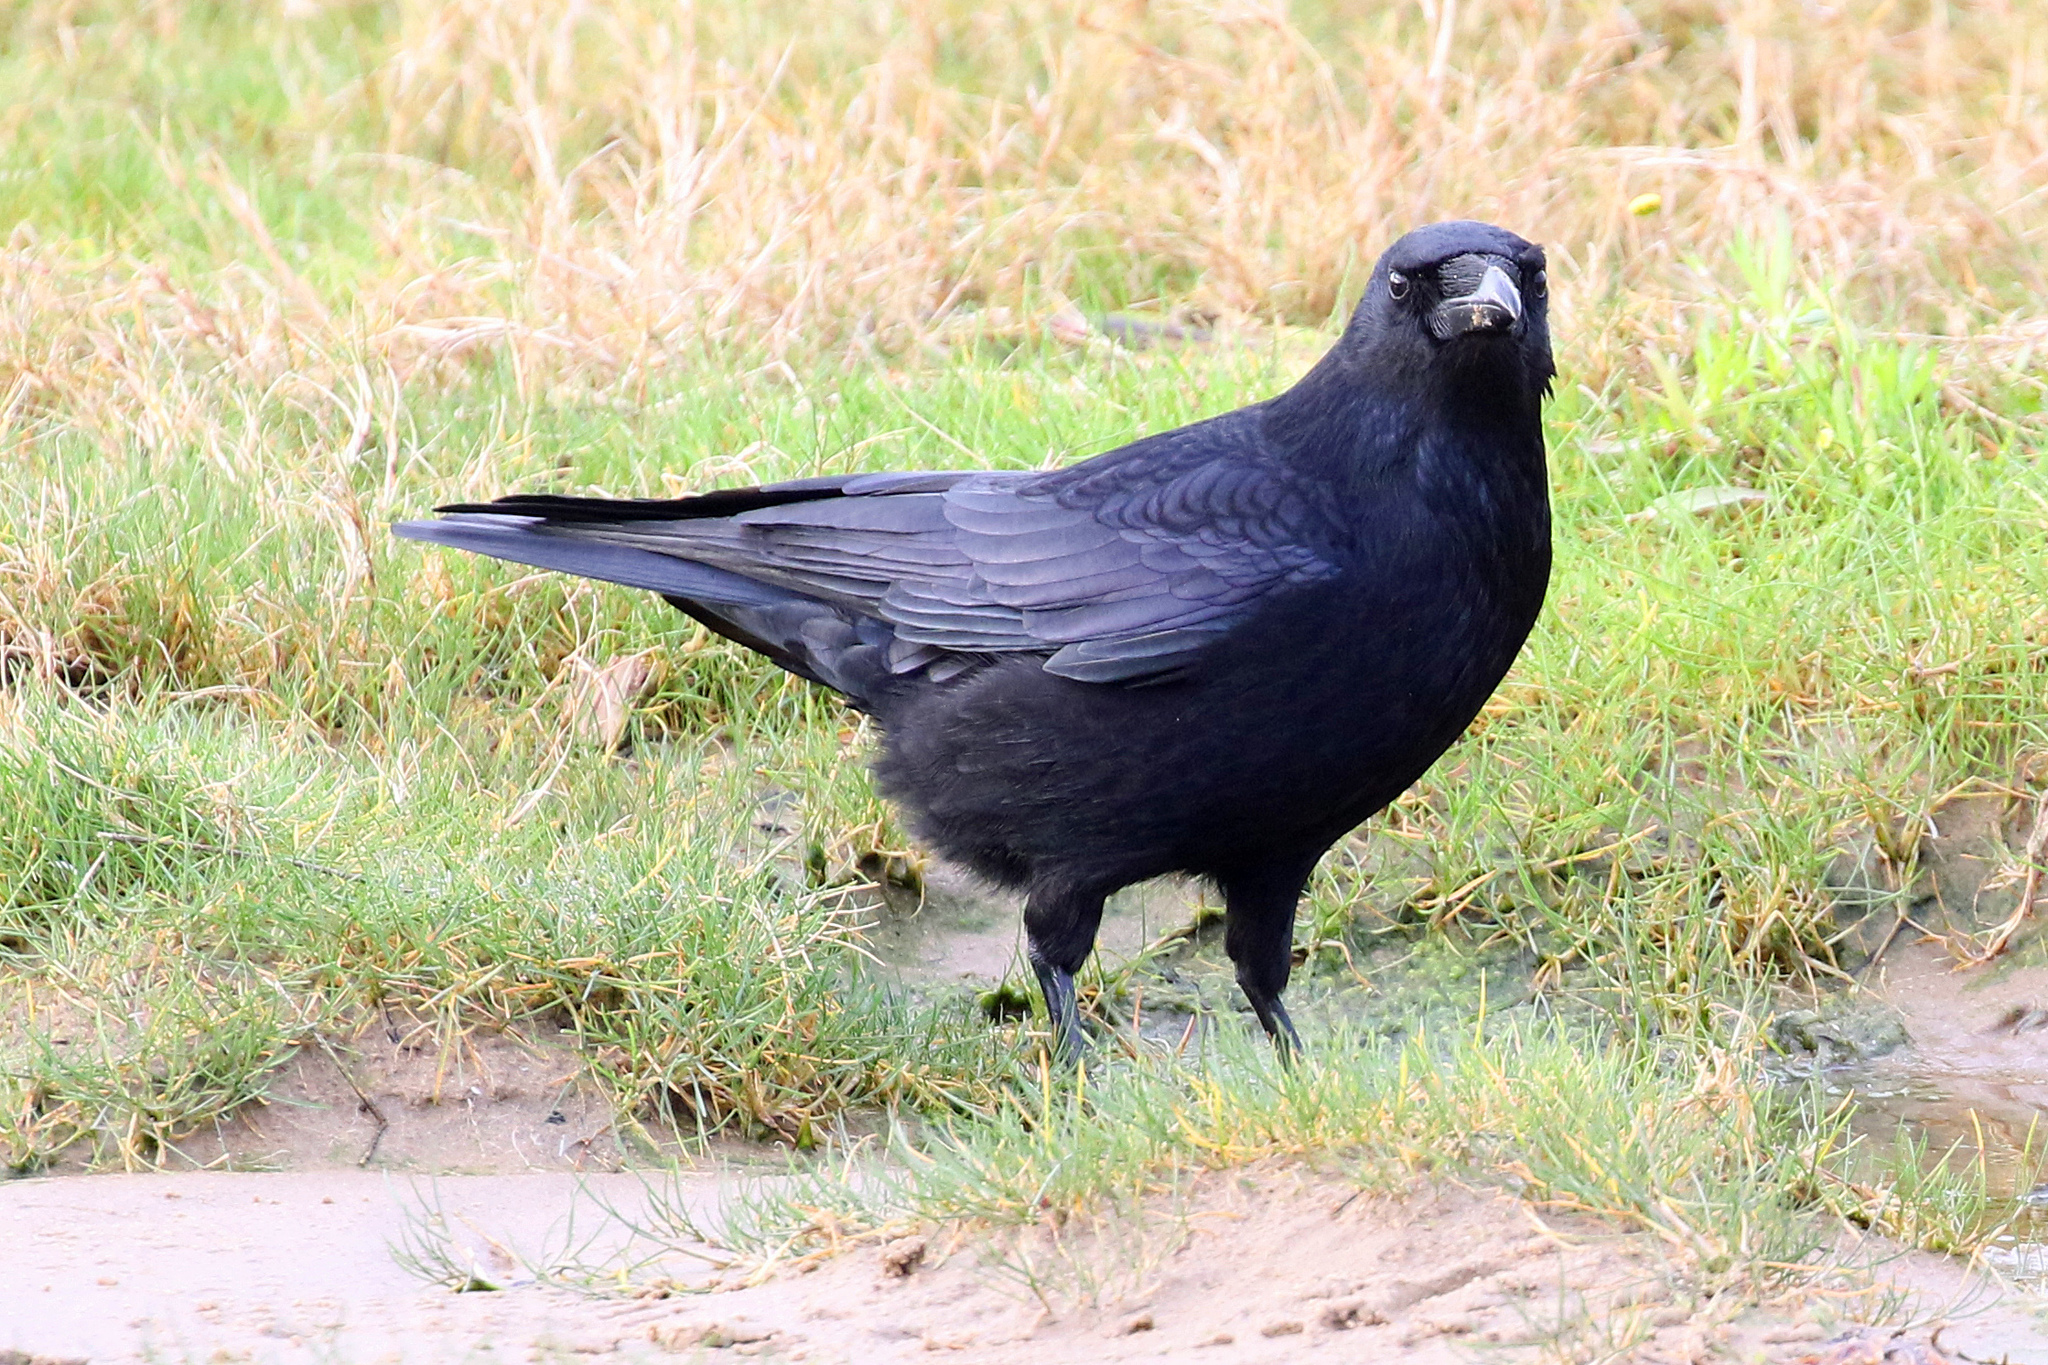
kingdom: Animalia
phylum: Chordata
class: Aves
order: Passeriformes
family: Corvidae
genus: Corvus
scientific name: Corvus corone
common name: Carrion crow
